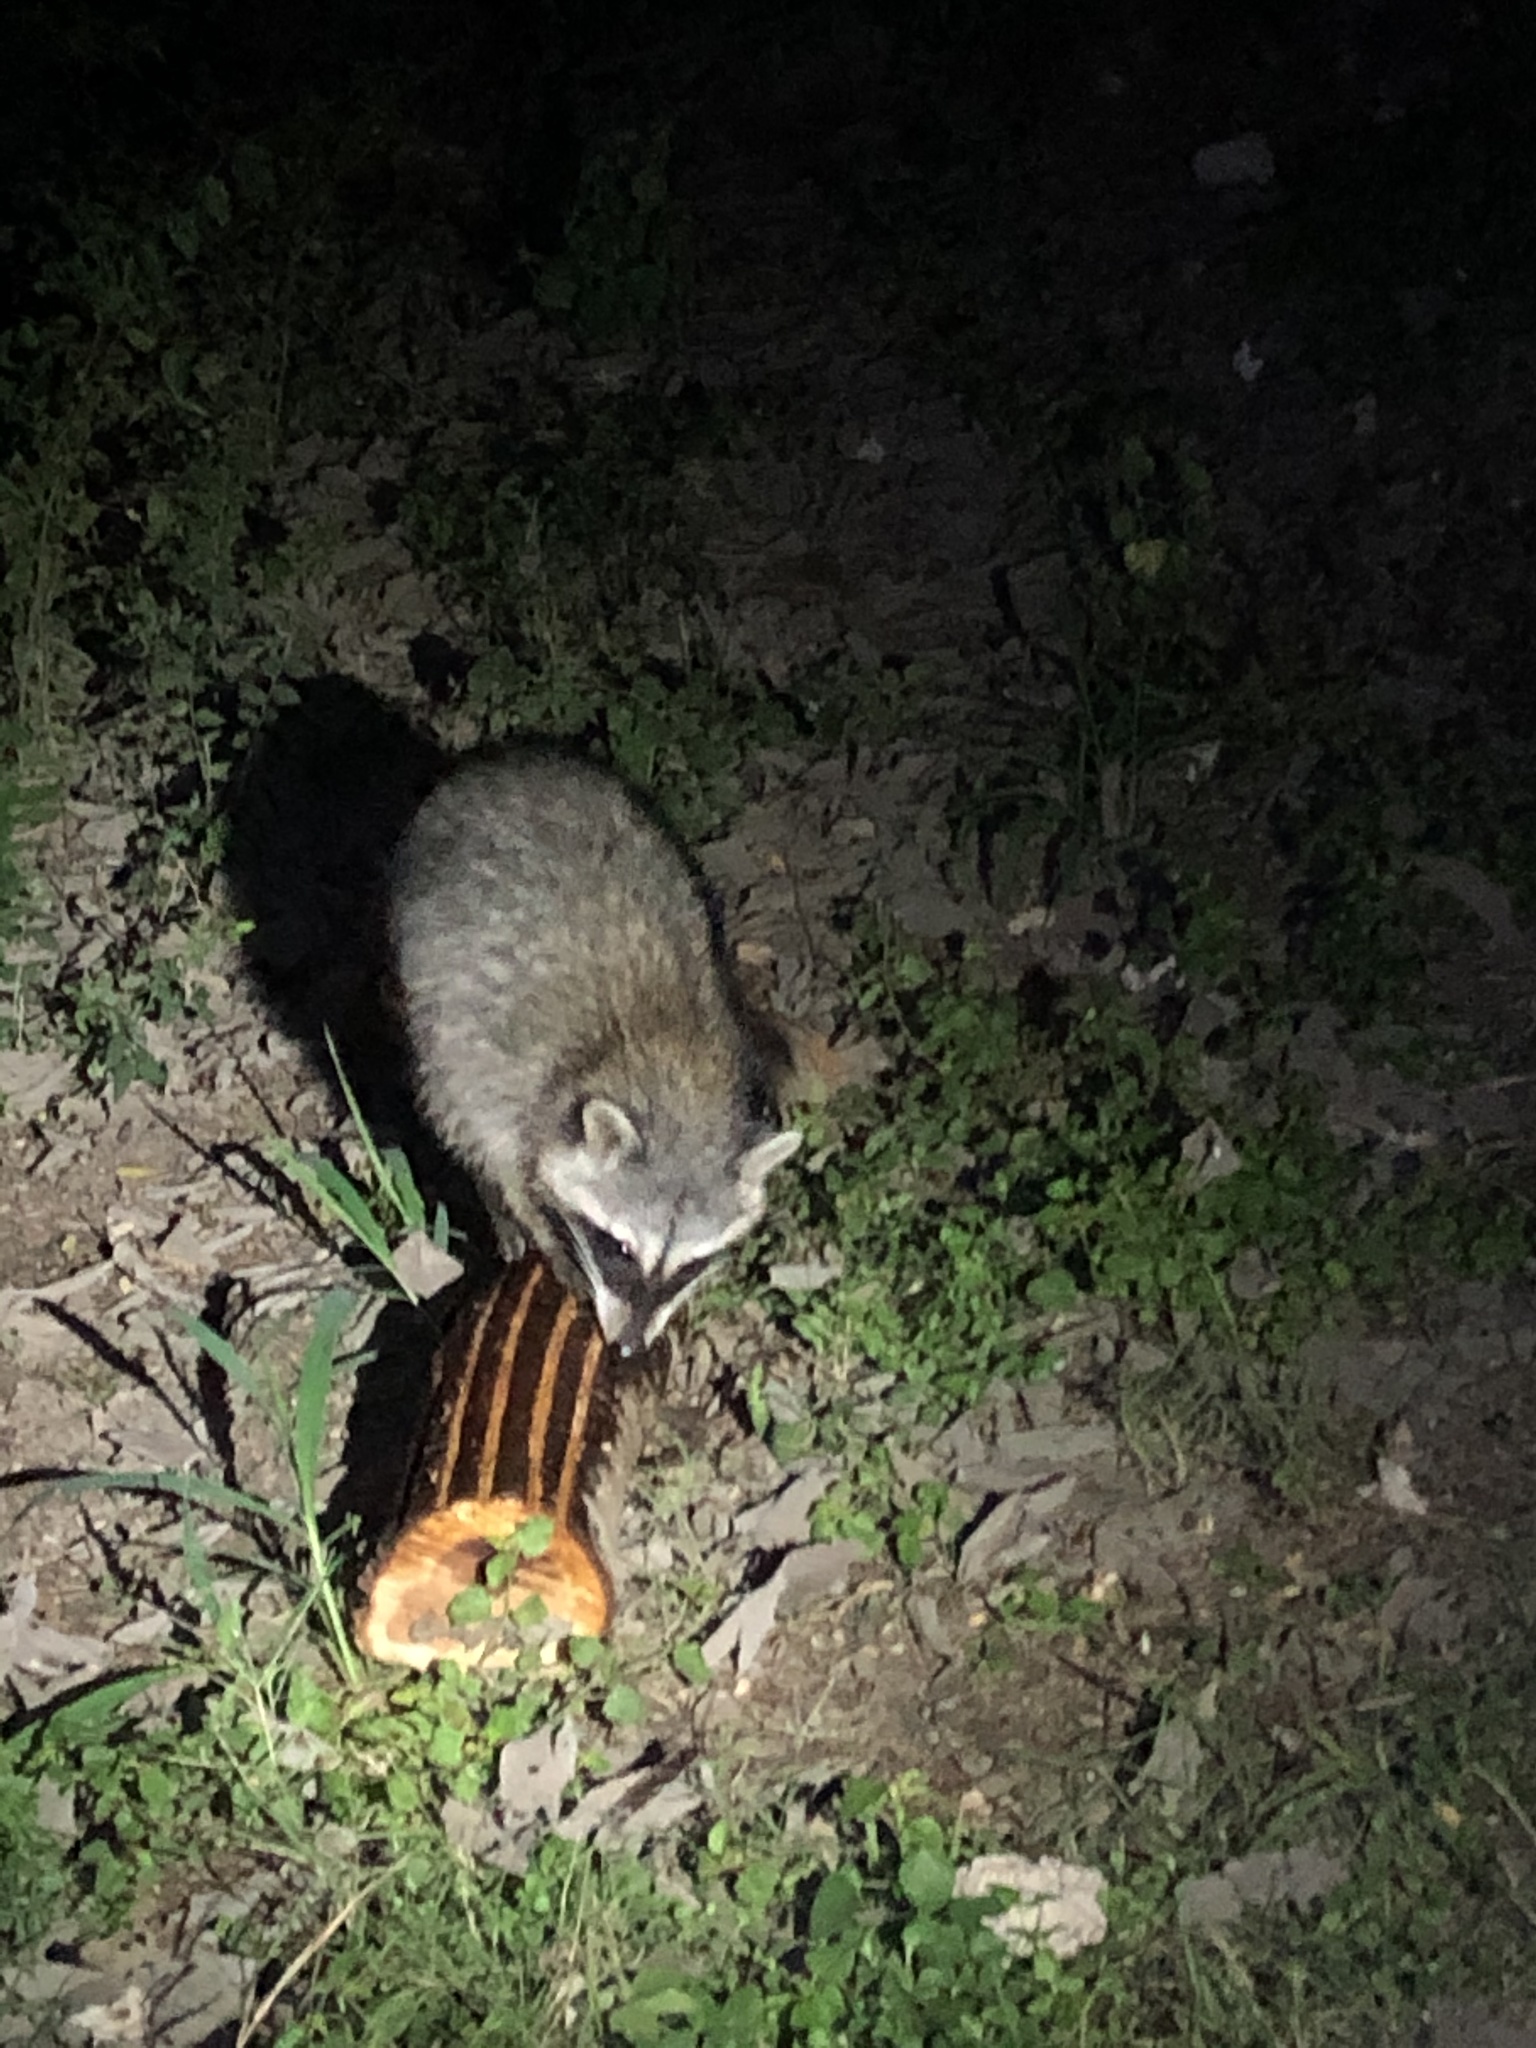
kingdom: Animalia
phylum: Chordata
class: Mammalia
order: Carnivora
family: Procyonidae
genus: Procyon
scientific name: Procyon lotor
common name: Raccoon
